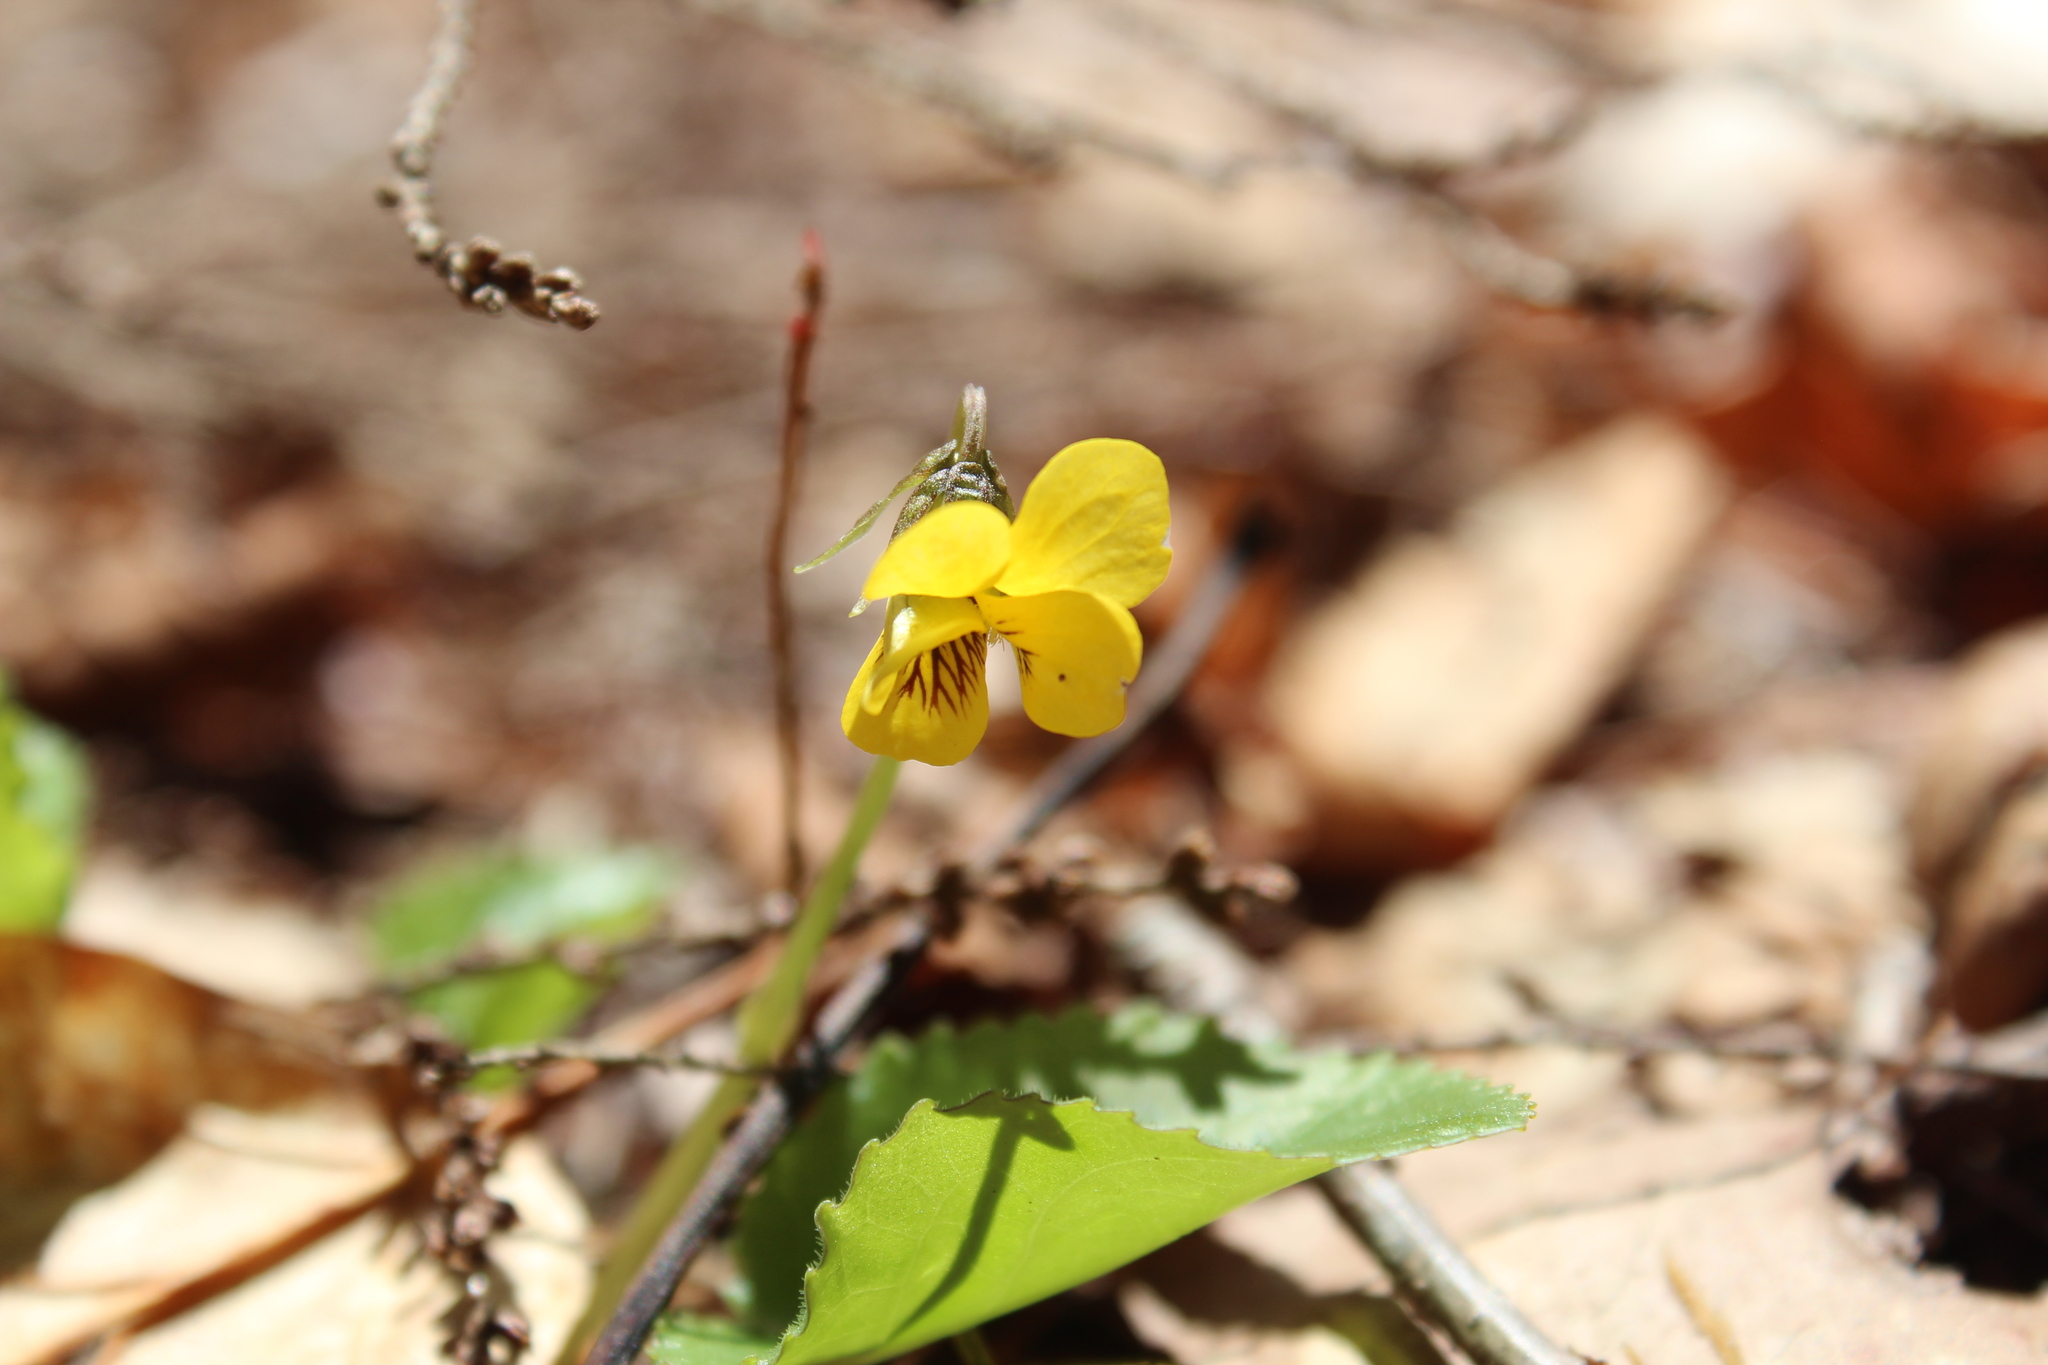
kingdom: Plantae
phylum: Tracheophyta
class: Magnoliopsida
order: Malpighiales
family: Violaceae
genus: Viola
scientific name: Viola rotundifolia
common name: Early yellow violet
